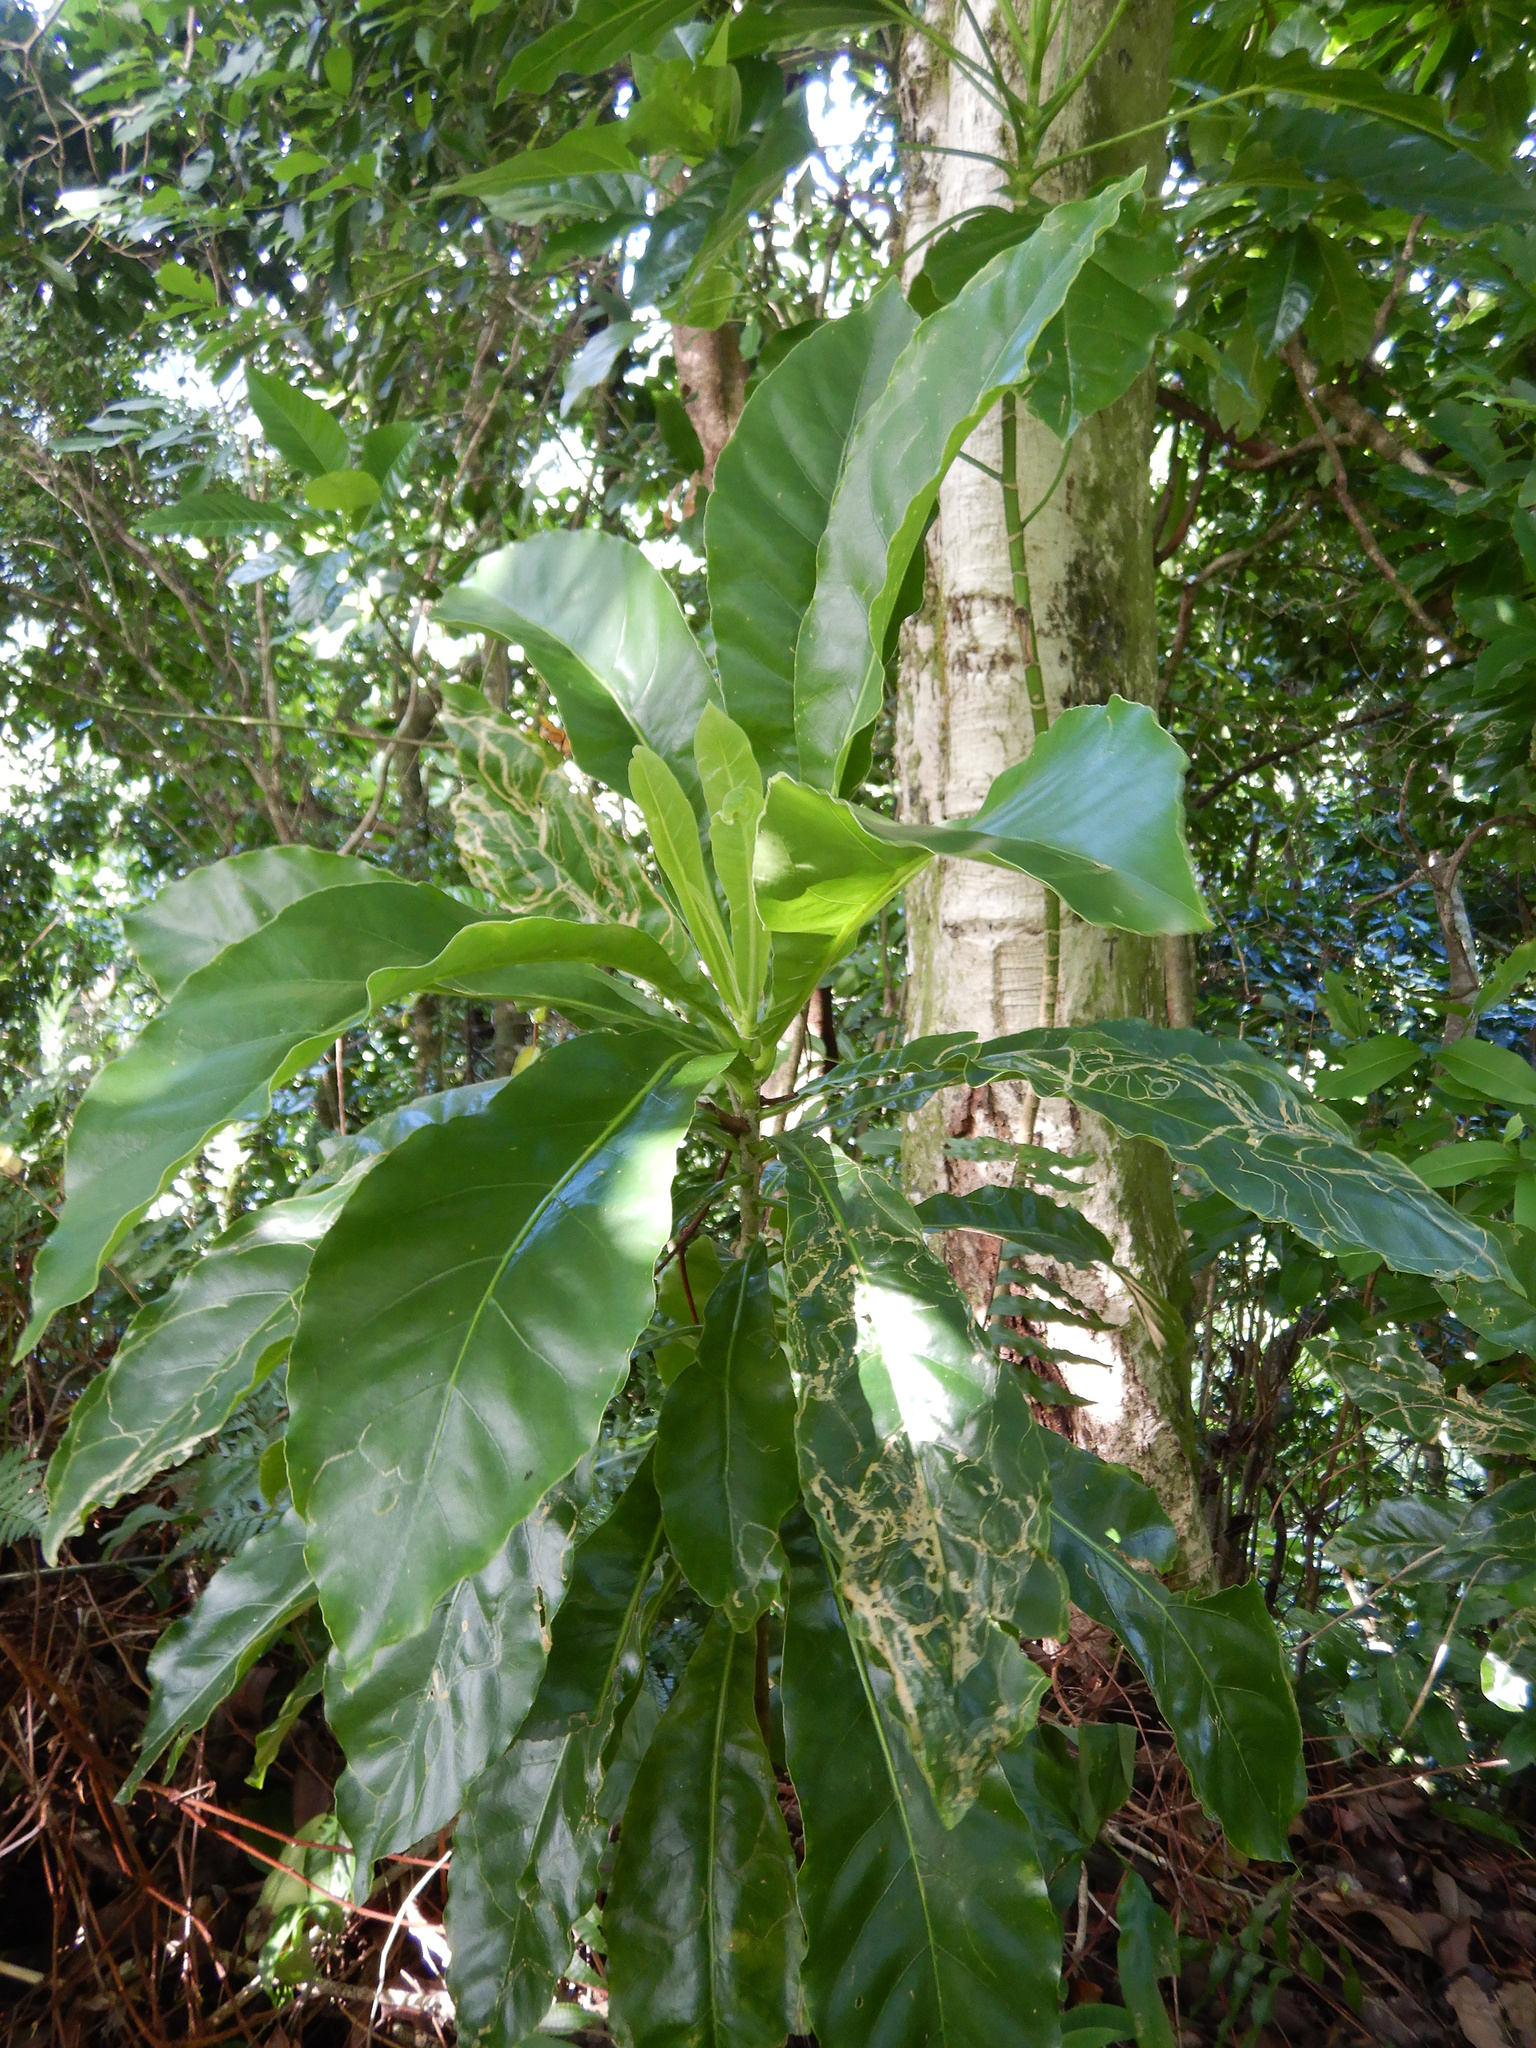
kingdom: Plantae
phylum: Tracheophyta
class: Magnoliopsida
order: Apiales
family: Araliaceae
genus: Meryta
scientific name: Meryta pauciflora
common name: Rarotonga meryta
